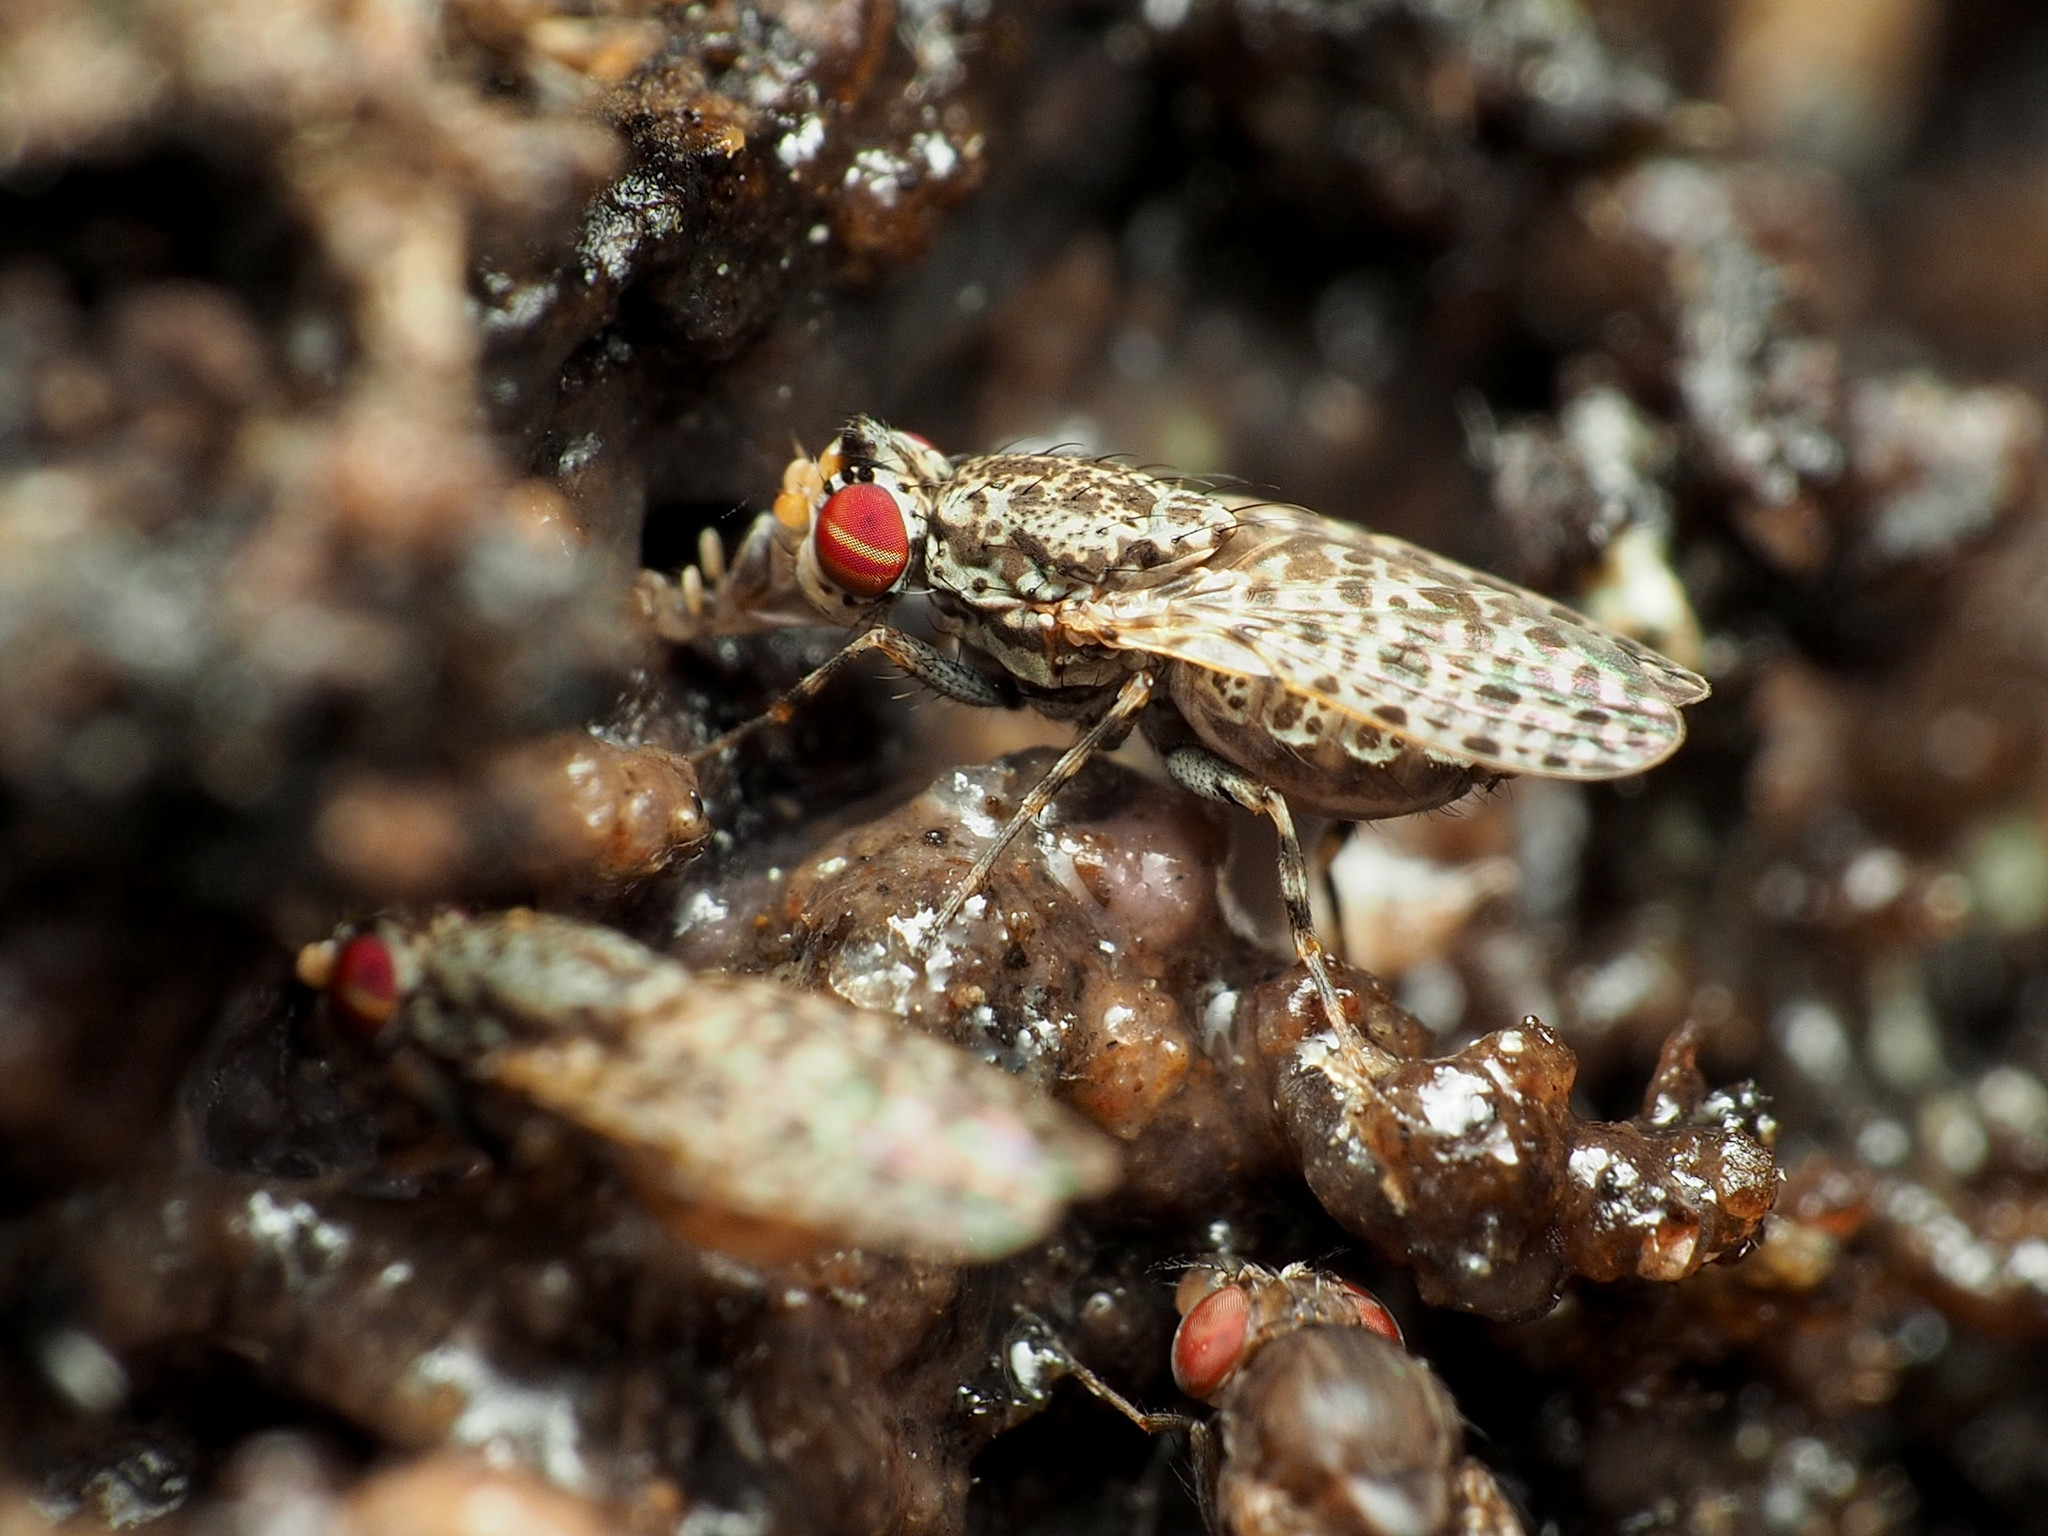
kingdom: Animalia
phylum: Arthropoda
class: Insecta
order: Diptera
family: Odiniidae
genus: Traginops
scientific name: Traginops irroratus
